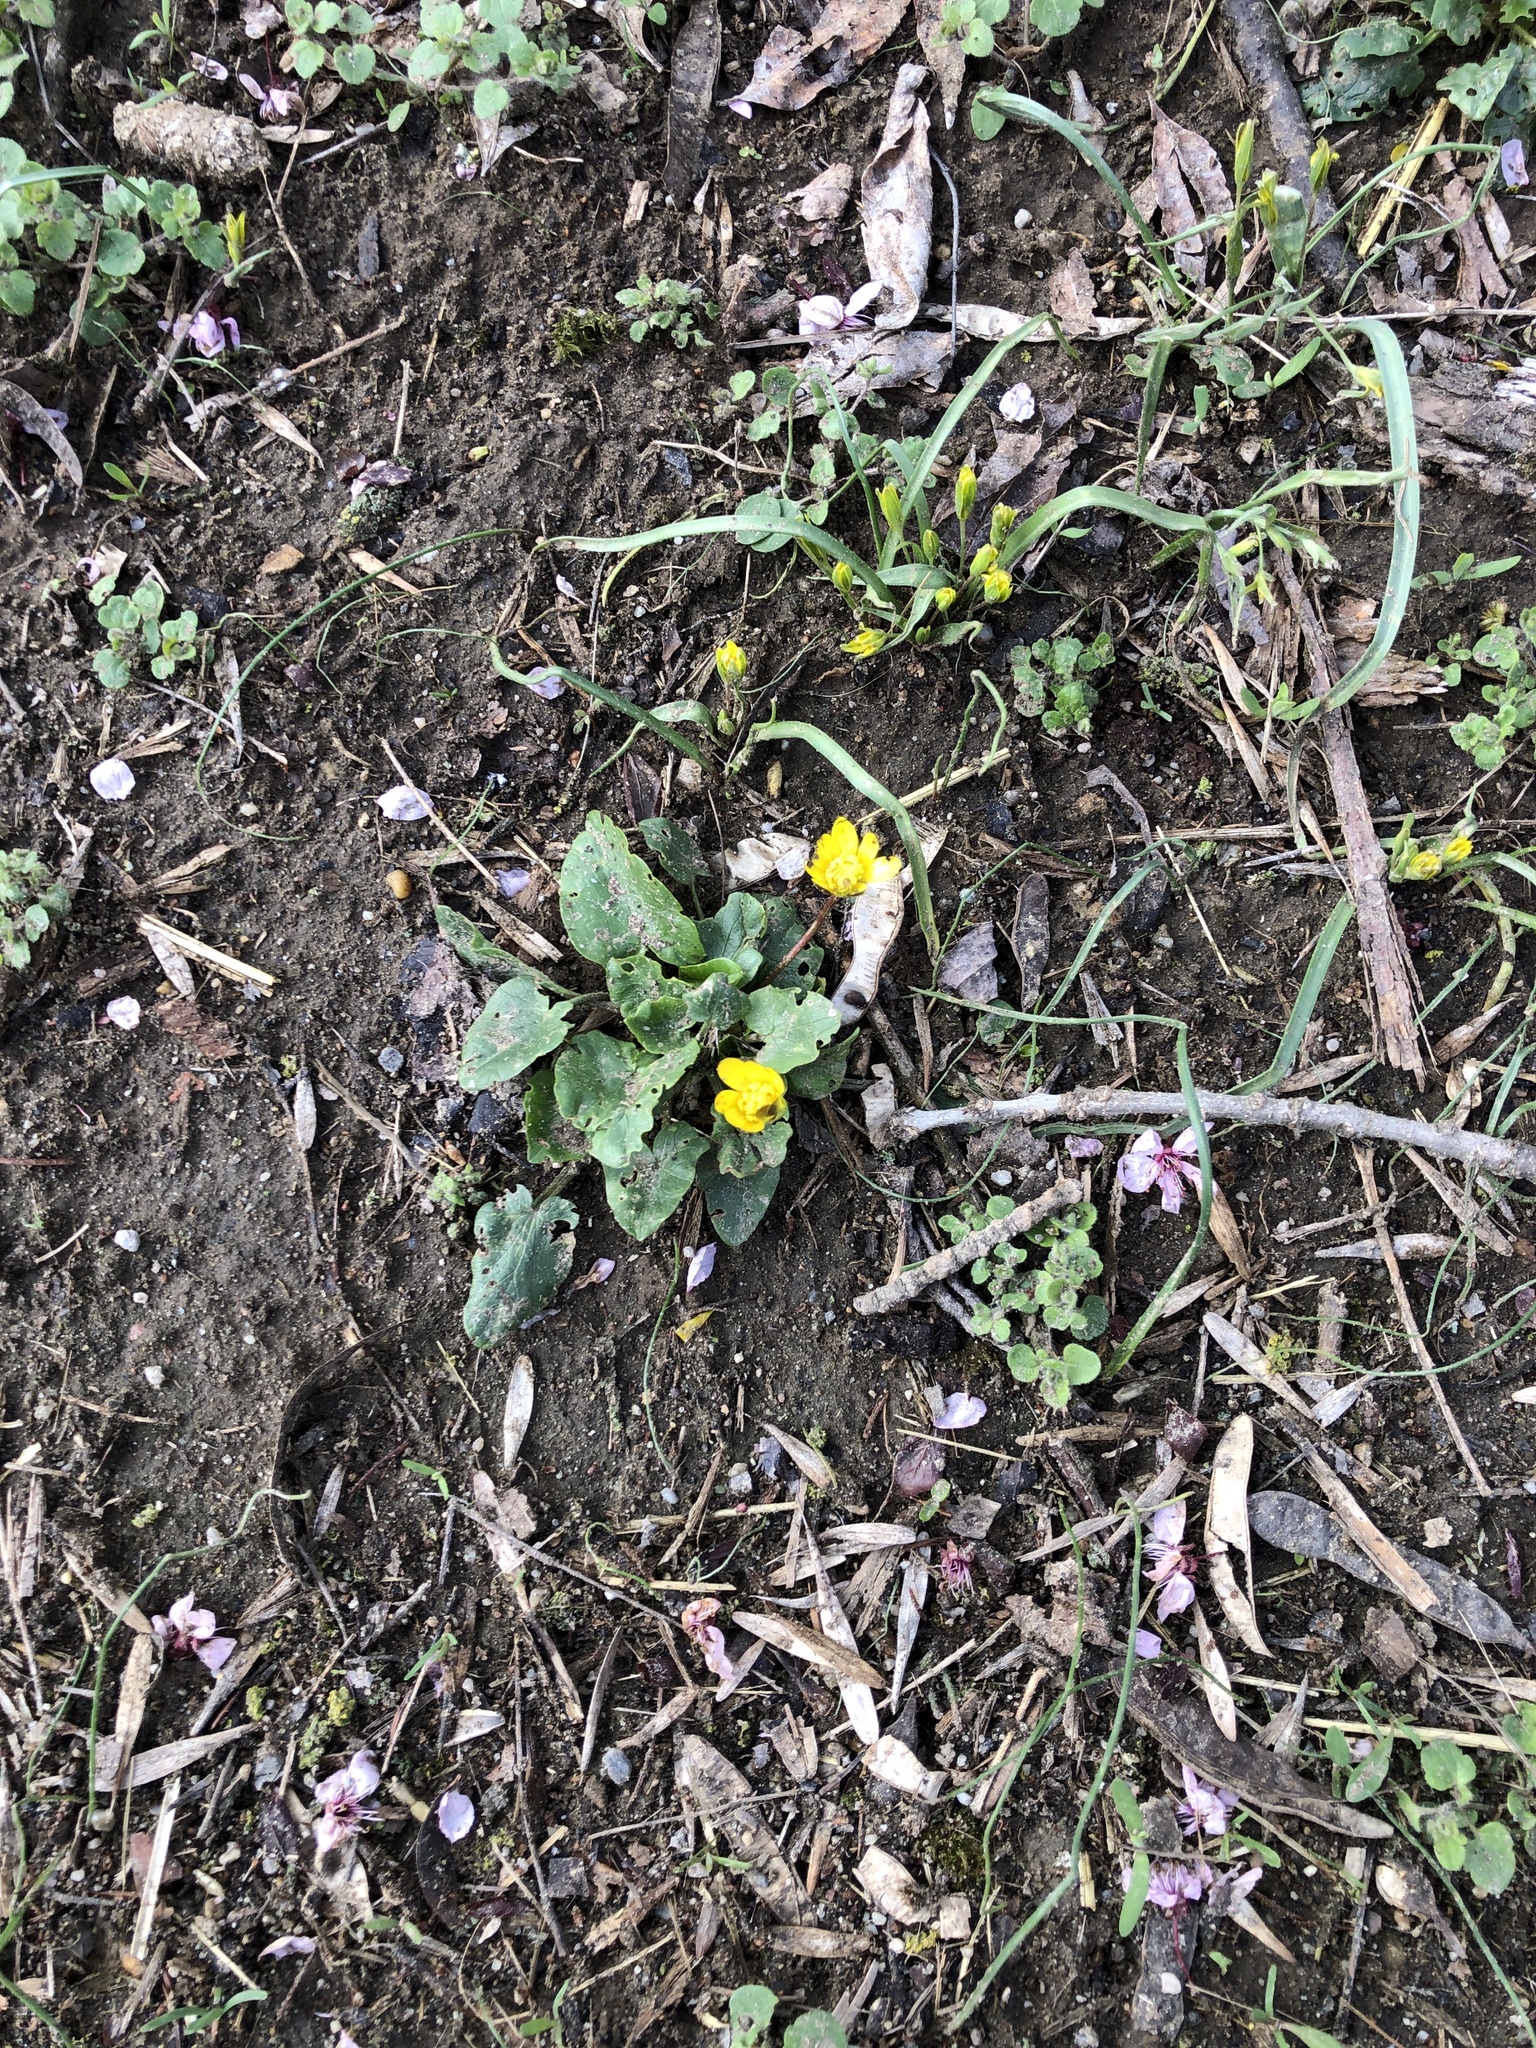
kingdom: Plantae
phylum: Tracheophyta
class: Magnoliopsida
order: Ranunculales
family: Ranunculaceae
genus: Ficaria
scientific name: Ficaria verna
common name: Lesser celandine
